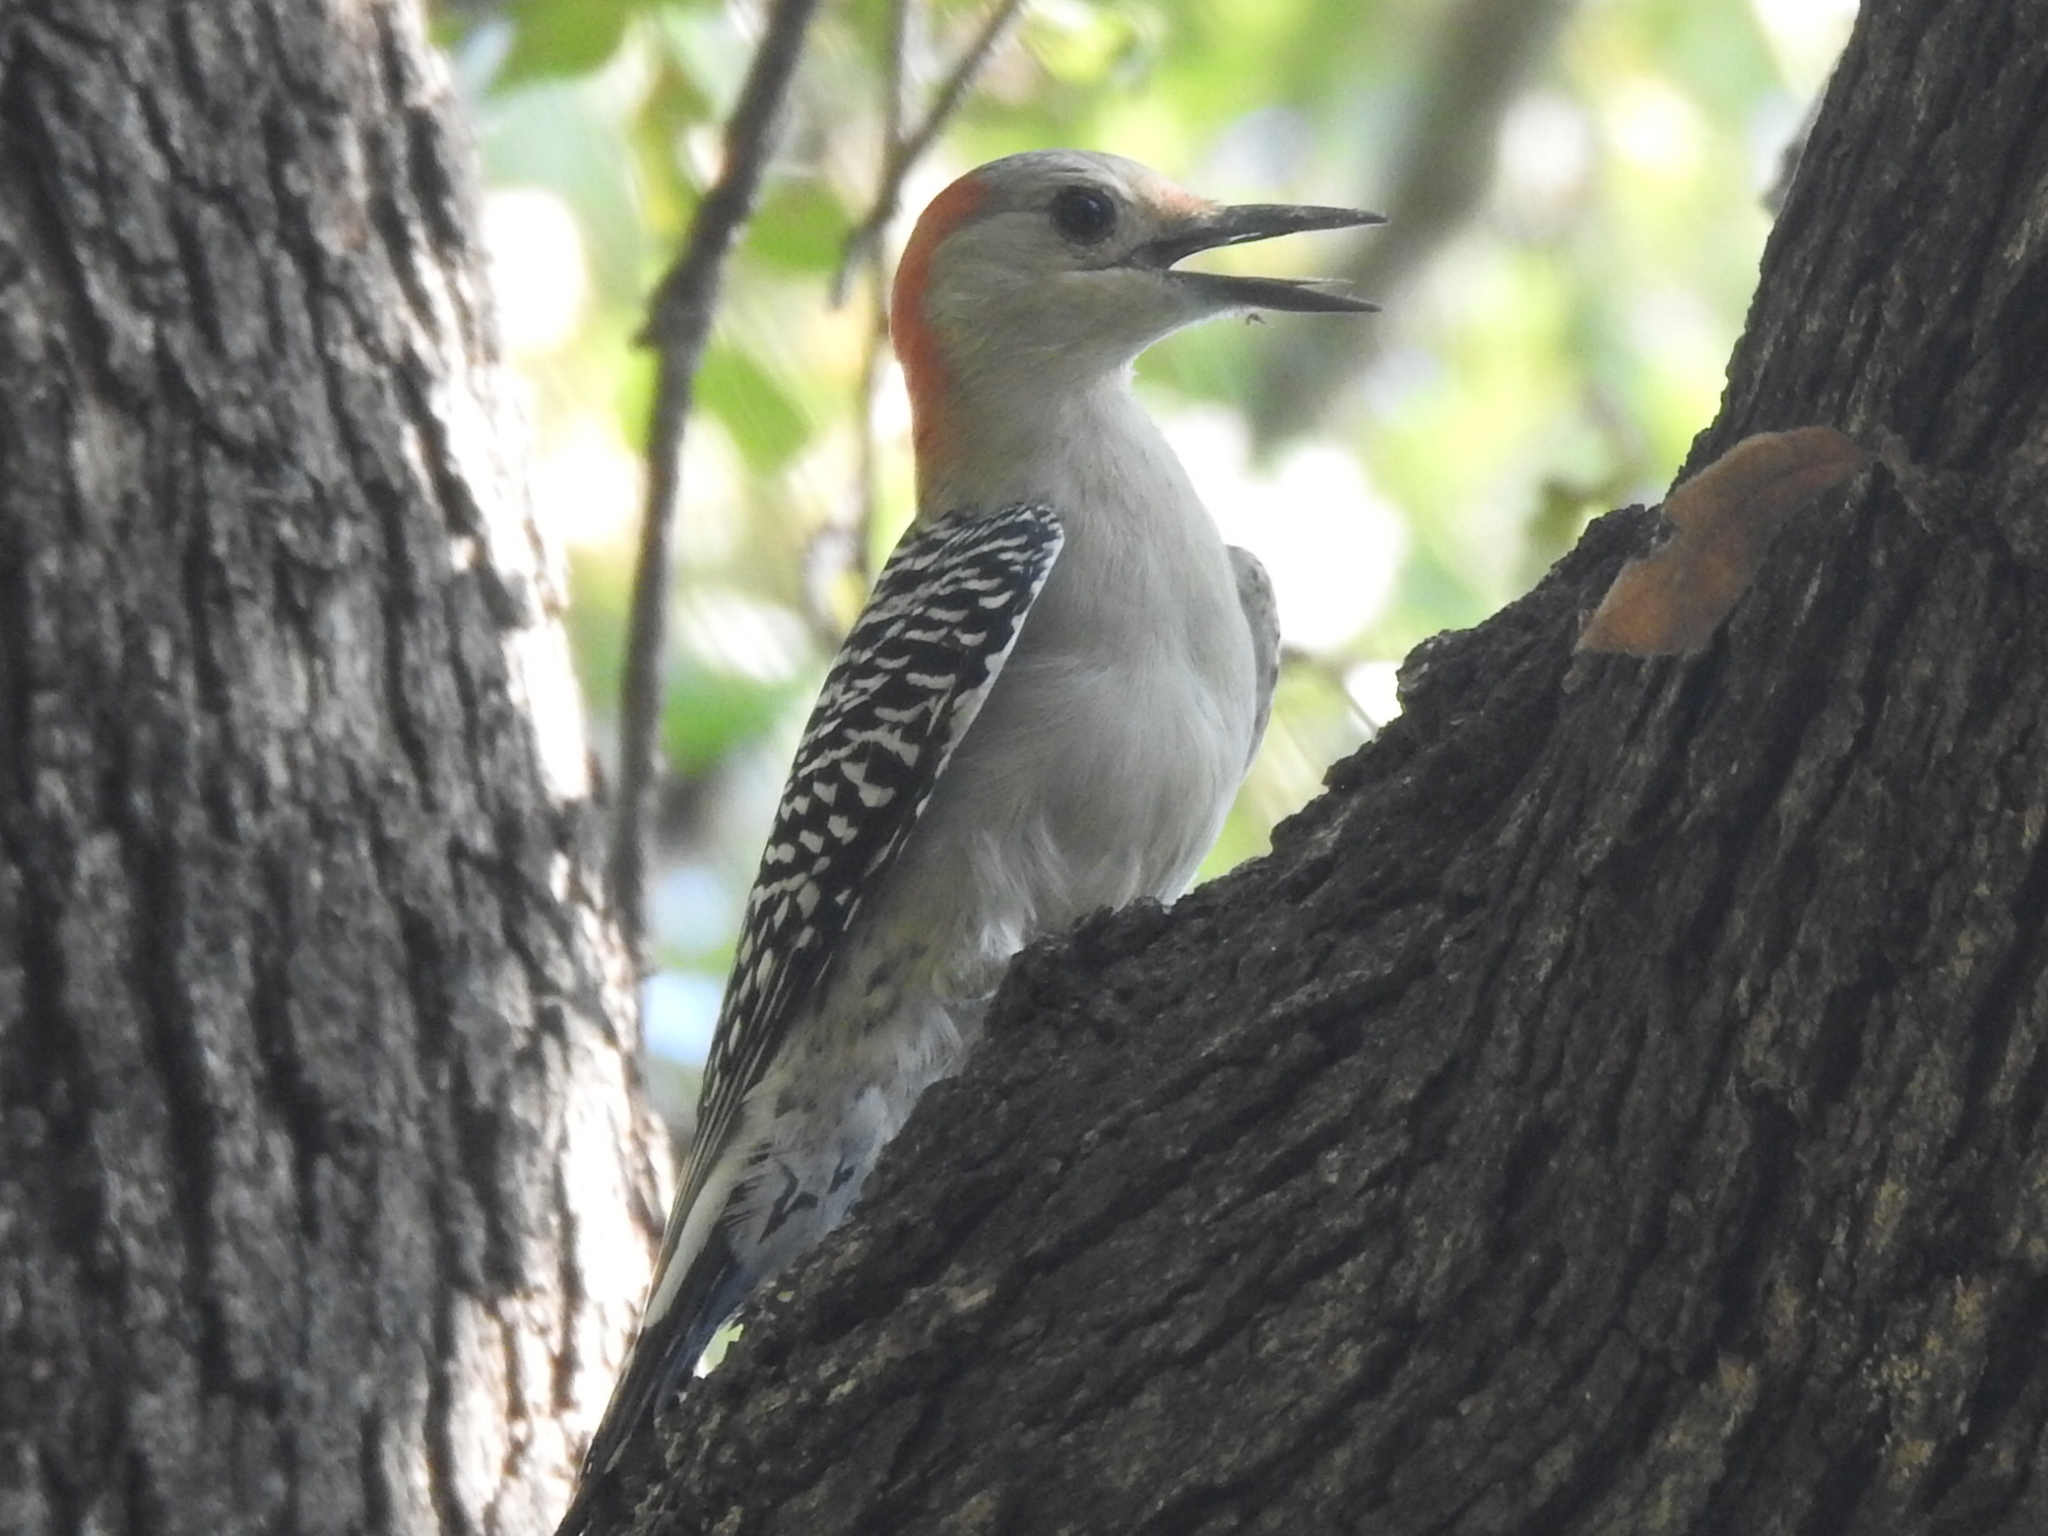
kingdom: Animalia
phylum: Chordata
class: Aves
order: Piciformes
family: Picidae
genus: Melanerpes
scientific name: Melanerpes carolinus
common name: Red-bellied woodpecker
